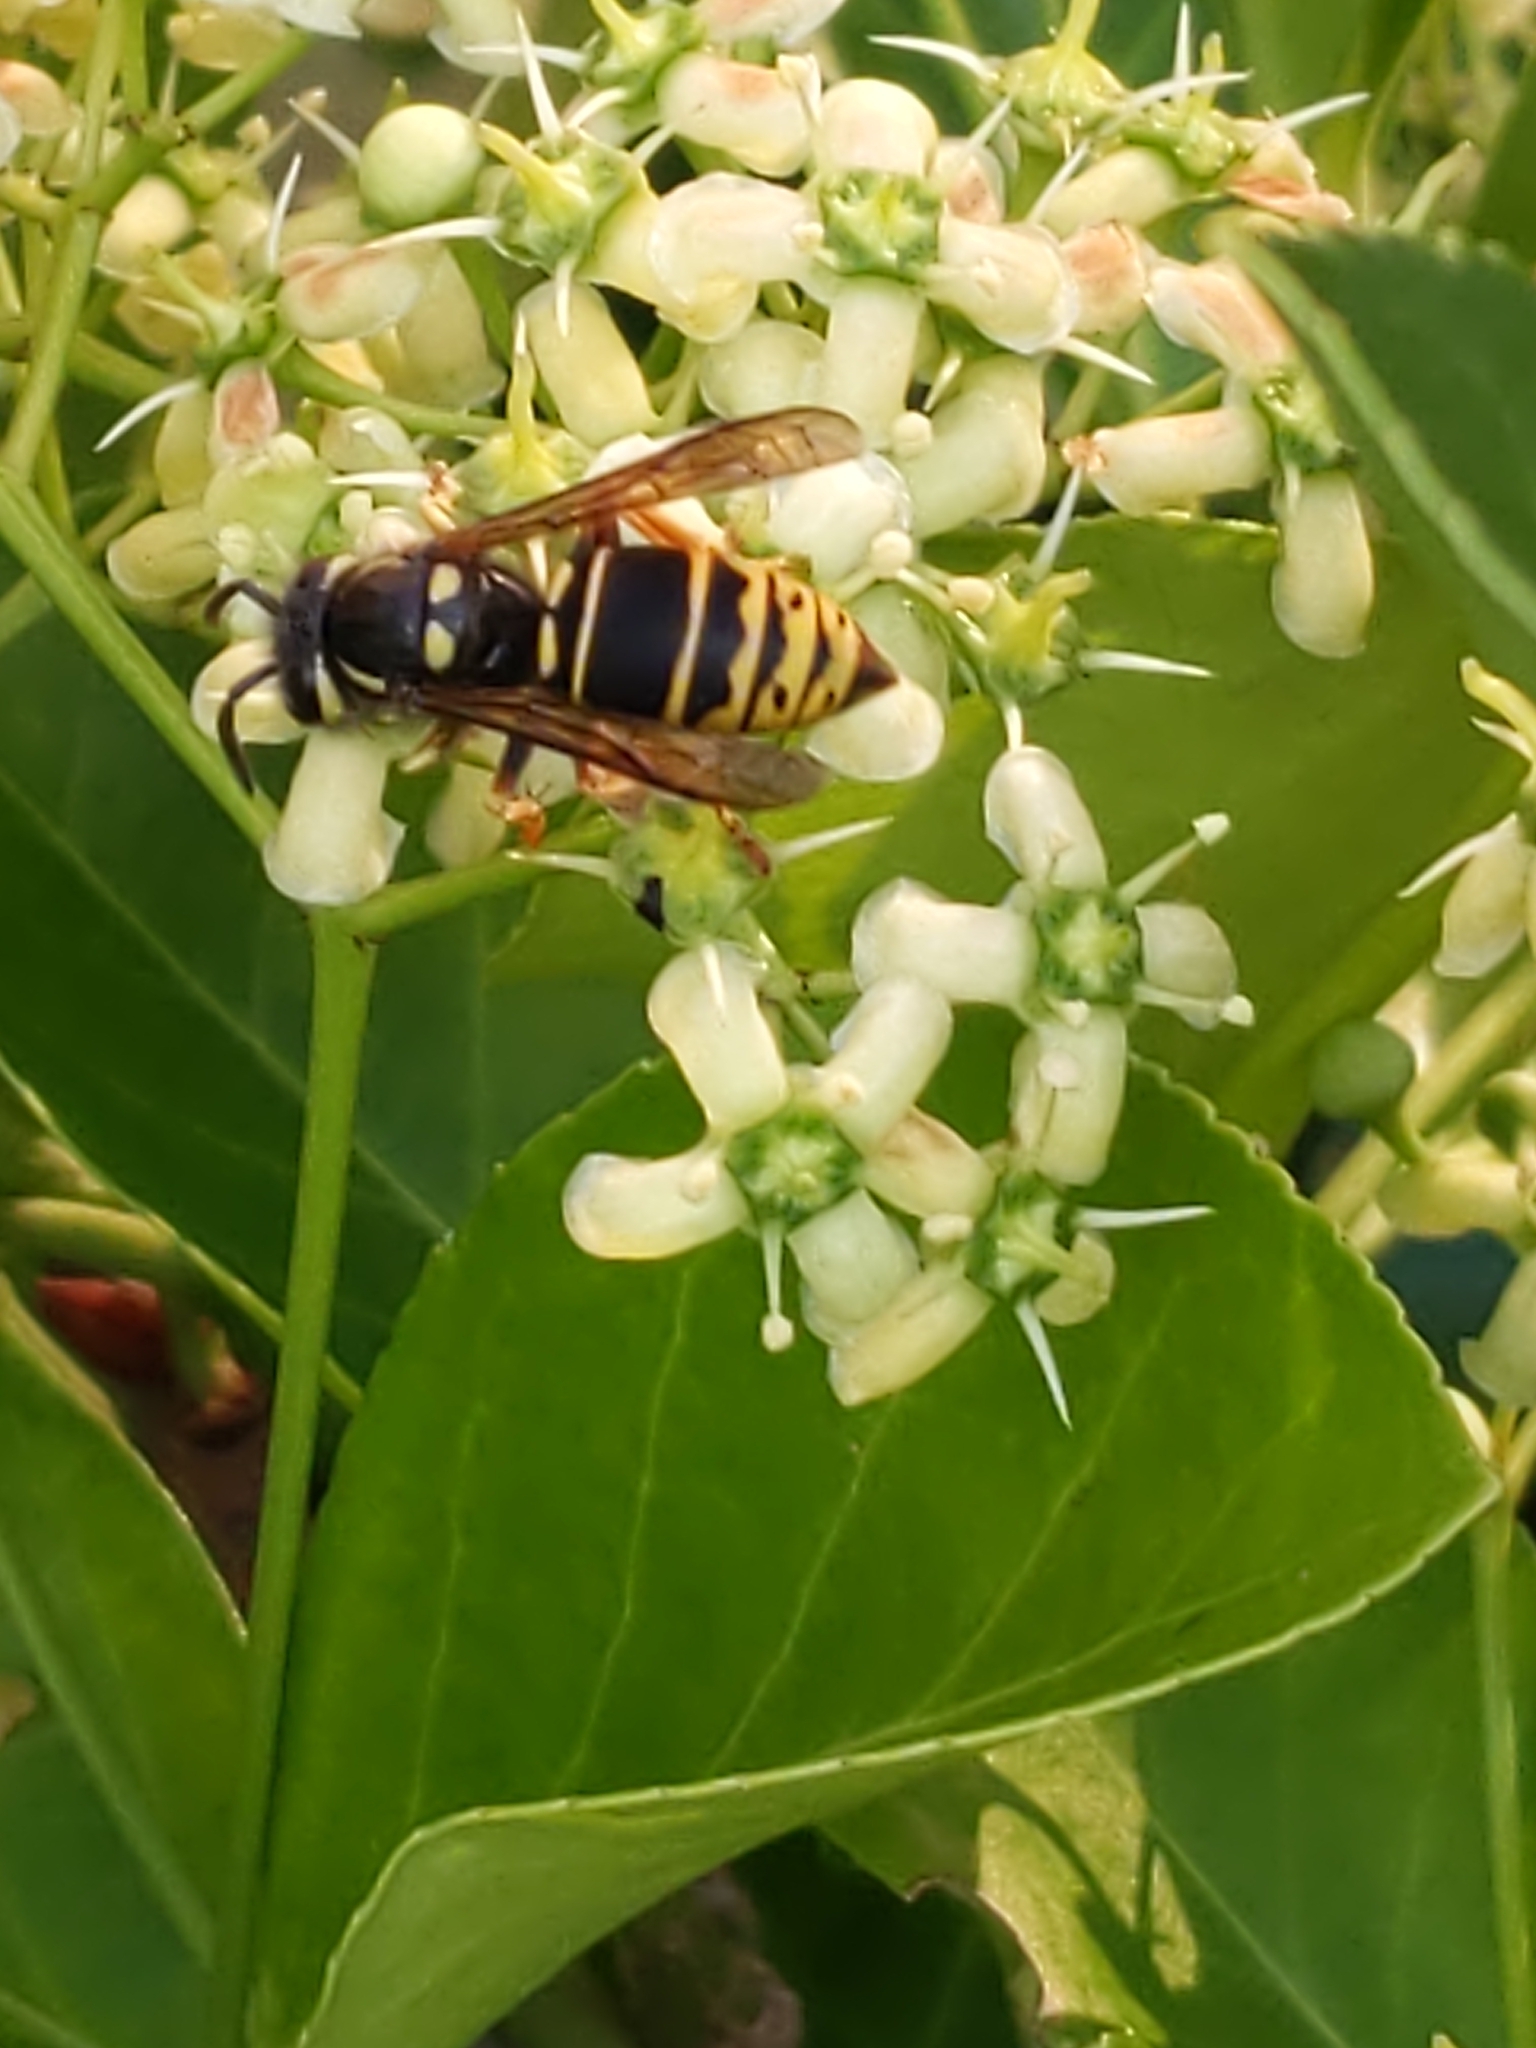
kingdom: Animalia
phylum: Arthropoda
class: Insecta
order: Hymenoptera
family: Vespidae
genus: Vespula
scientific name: Vespula vidua
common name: Widow yellowjacket
